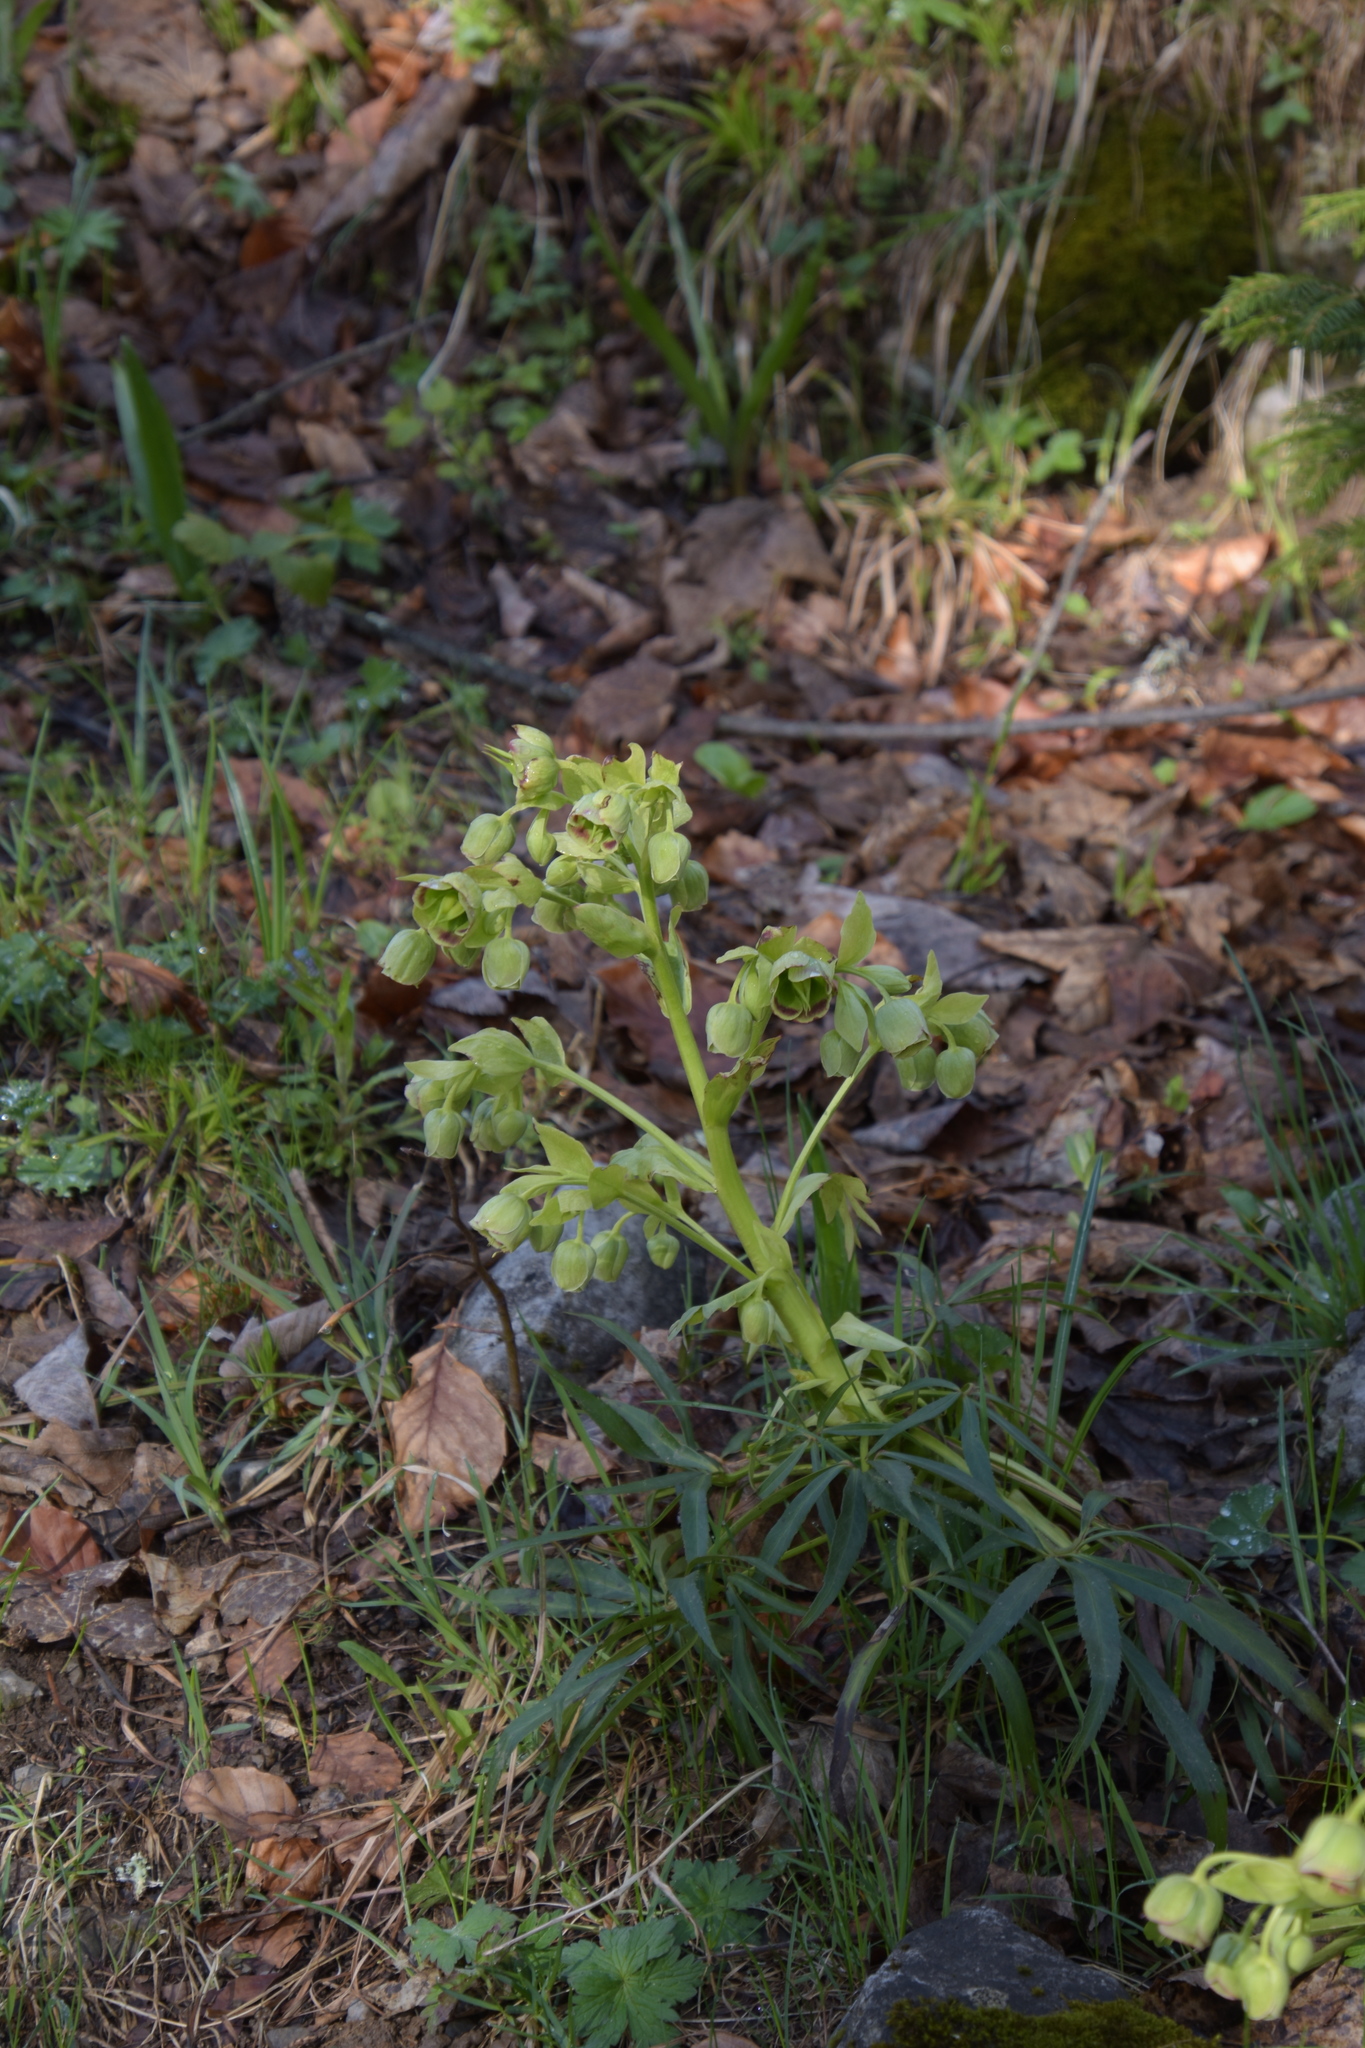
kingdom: Plantae
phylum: Tracheophyta
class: Magnoliopsida
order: Ranunculales
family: Ranunculaceae
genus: Helleborus
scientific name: Helleborus foetidus
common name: Stinking hellebore
